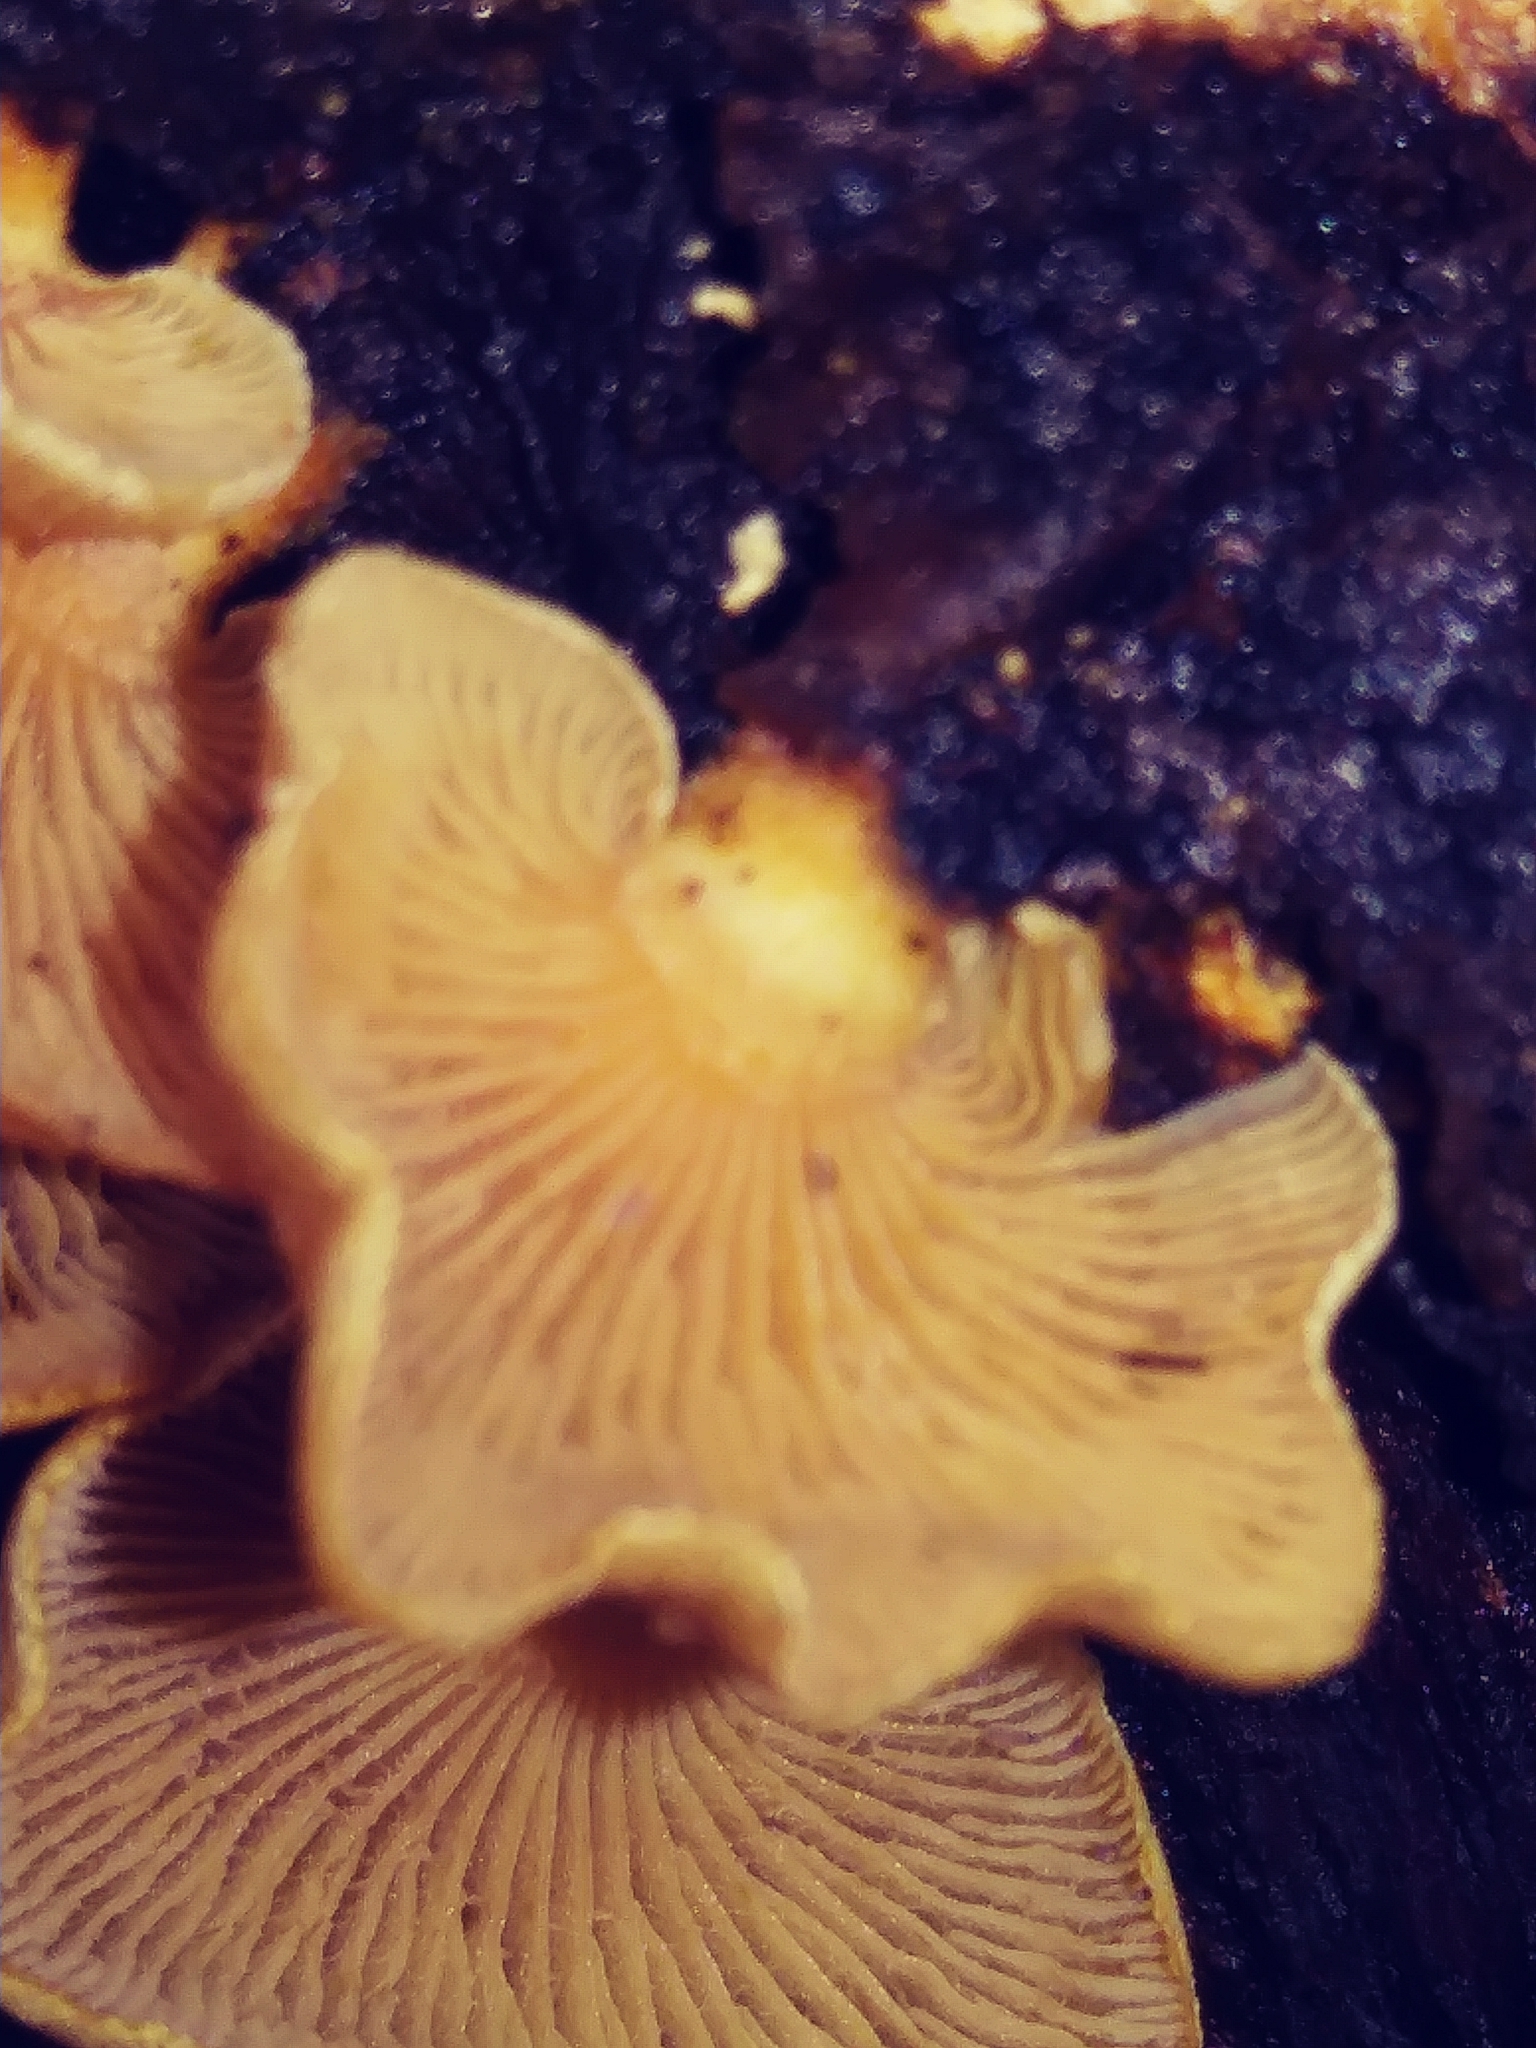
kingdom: Fungi
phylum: Basidiomycota
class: Agaricomycetes
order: Agaricales
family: Mycenaceae
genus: Panellus
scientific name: Panellus stipticus
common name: Bitter oysterling
